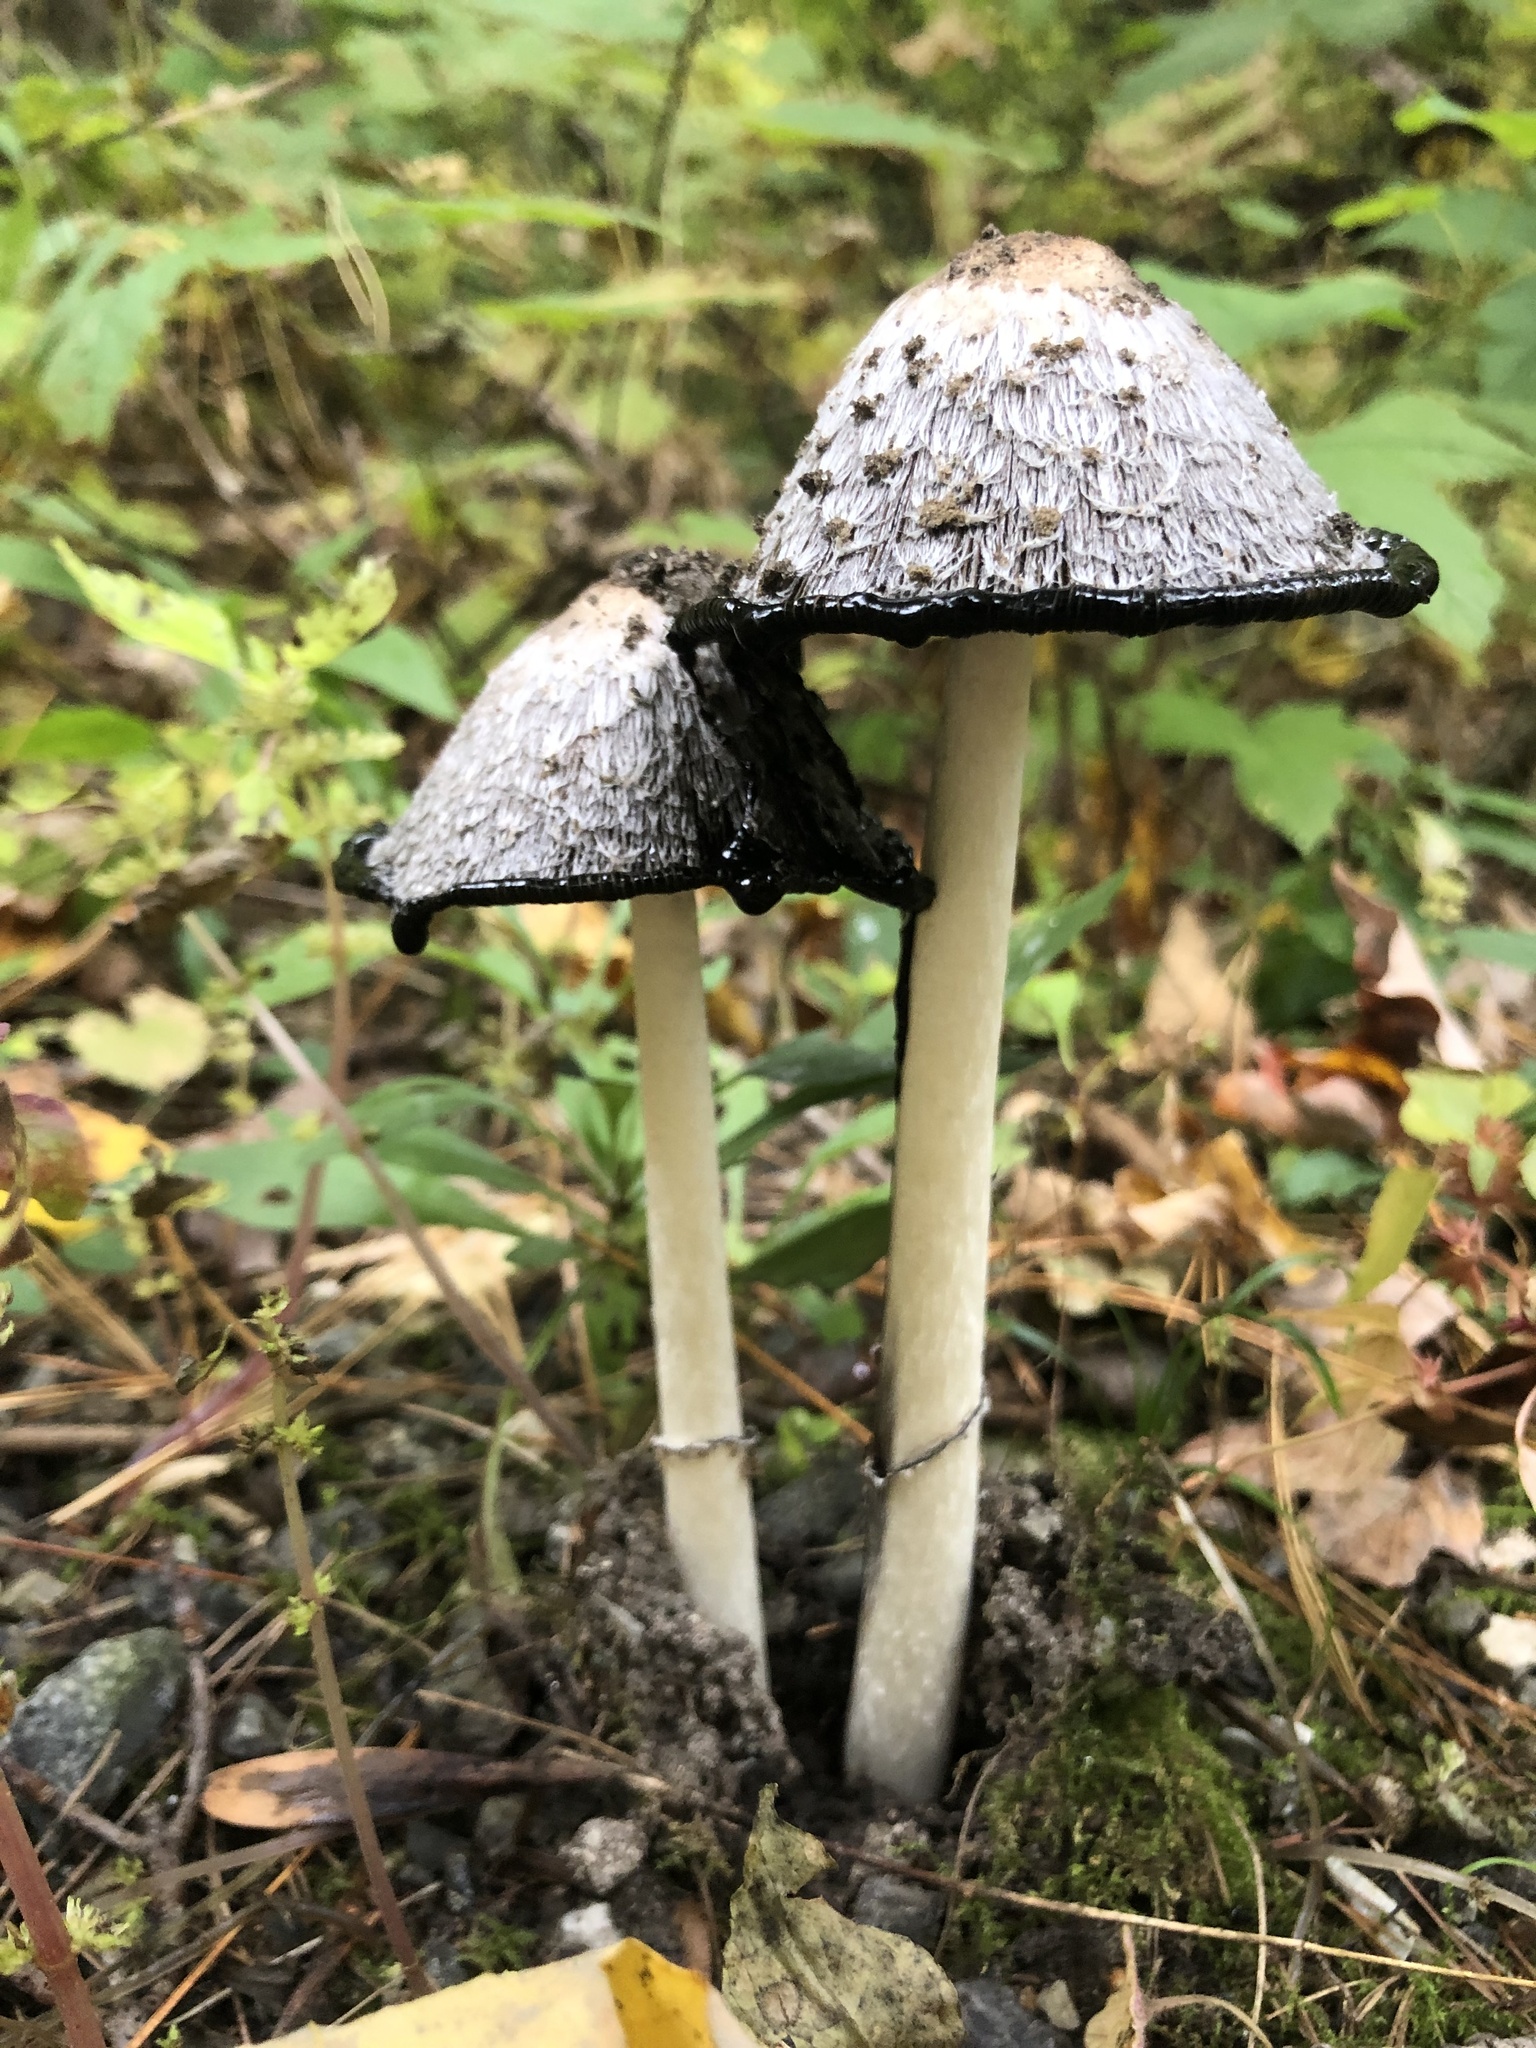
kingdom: Fungi
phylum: Basidiomycota
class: Agaricomycetes
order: Agaricales
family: Agaricaceae
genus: Coprinus
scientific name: Coprinus comatus
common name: Lawyer's wig
